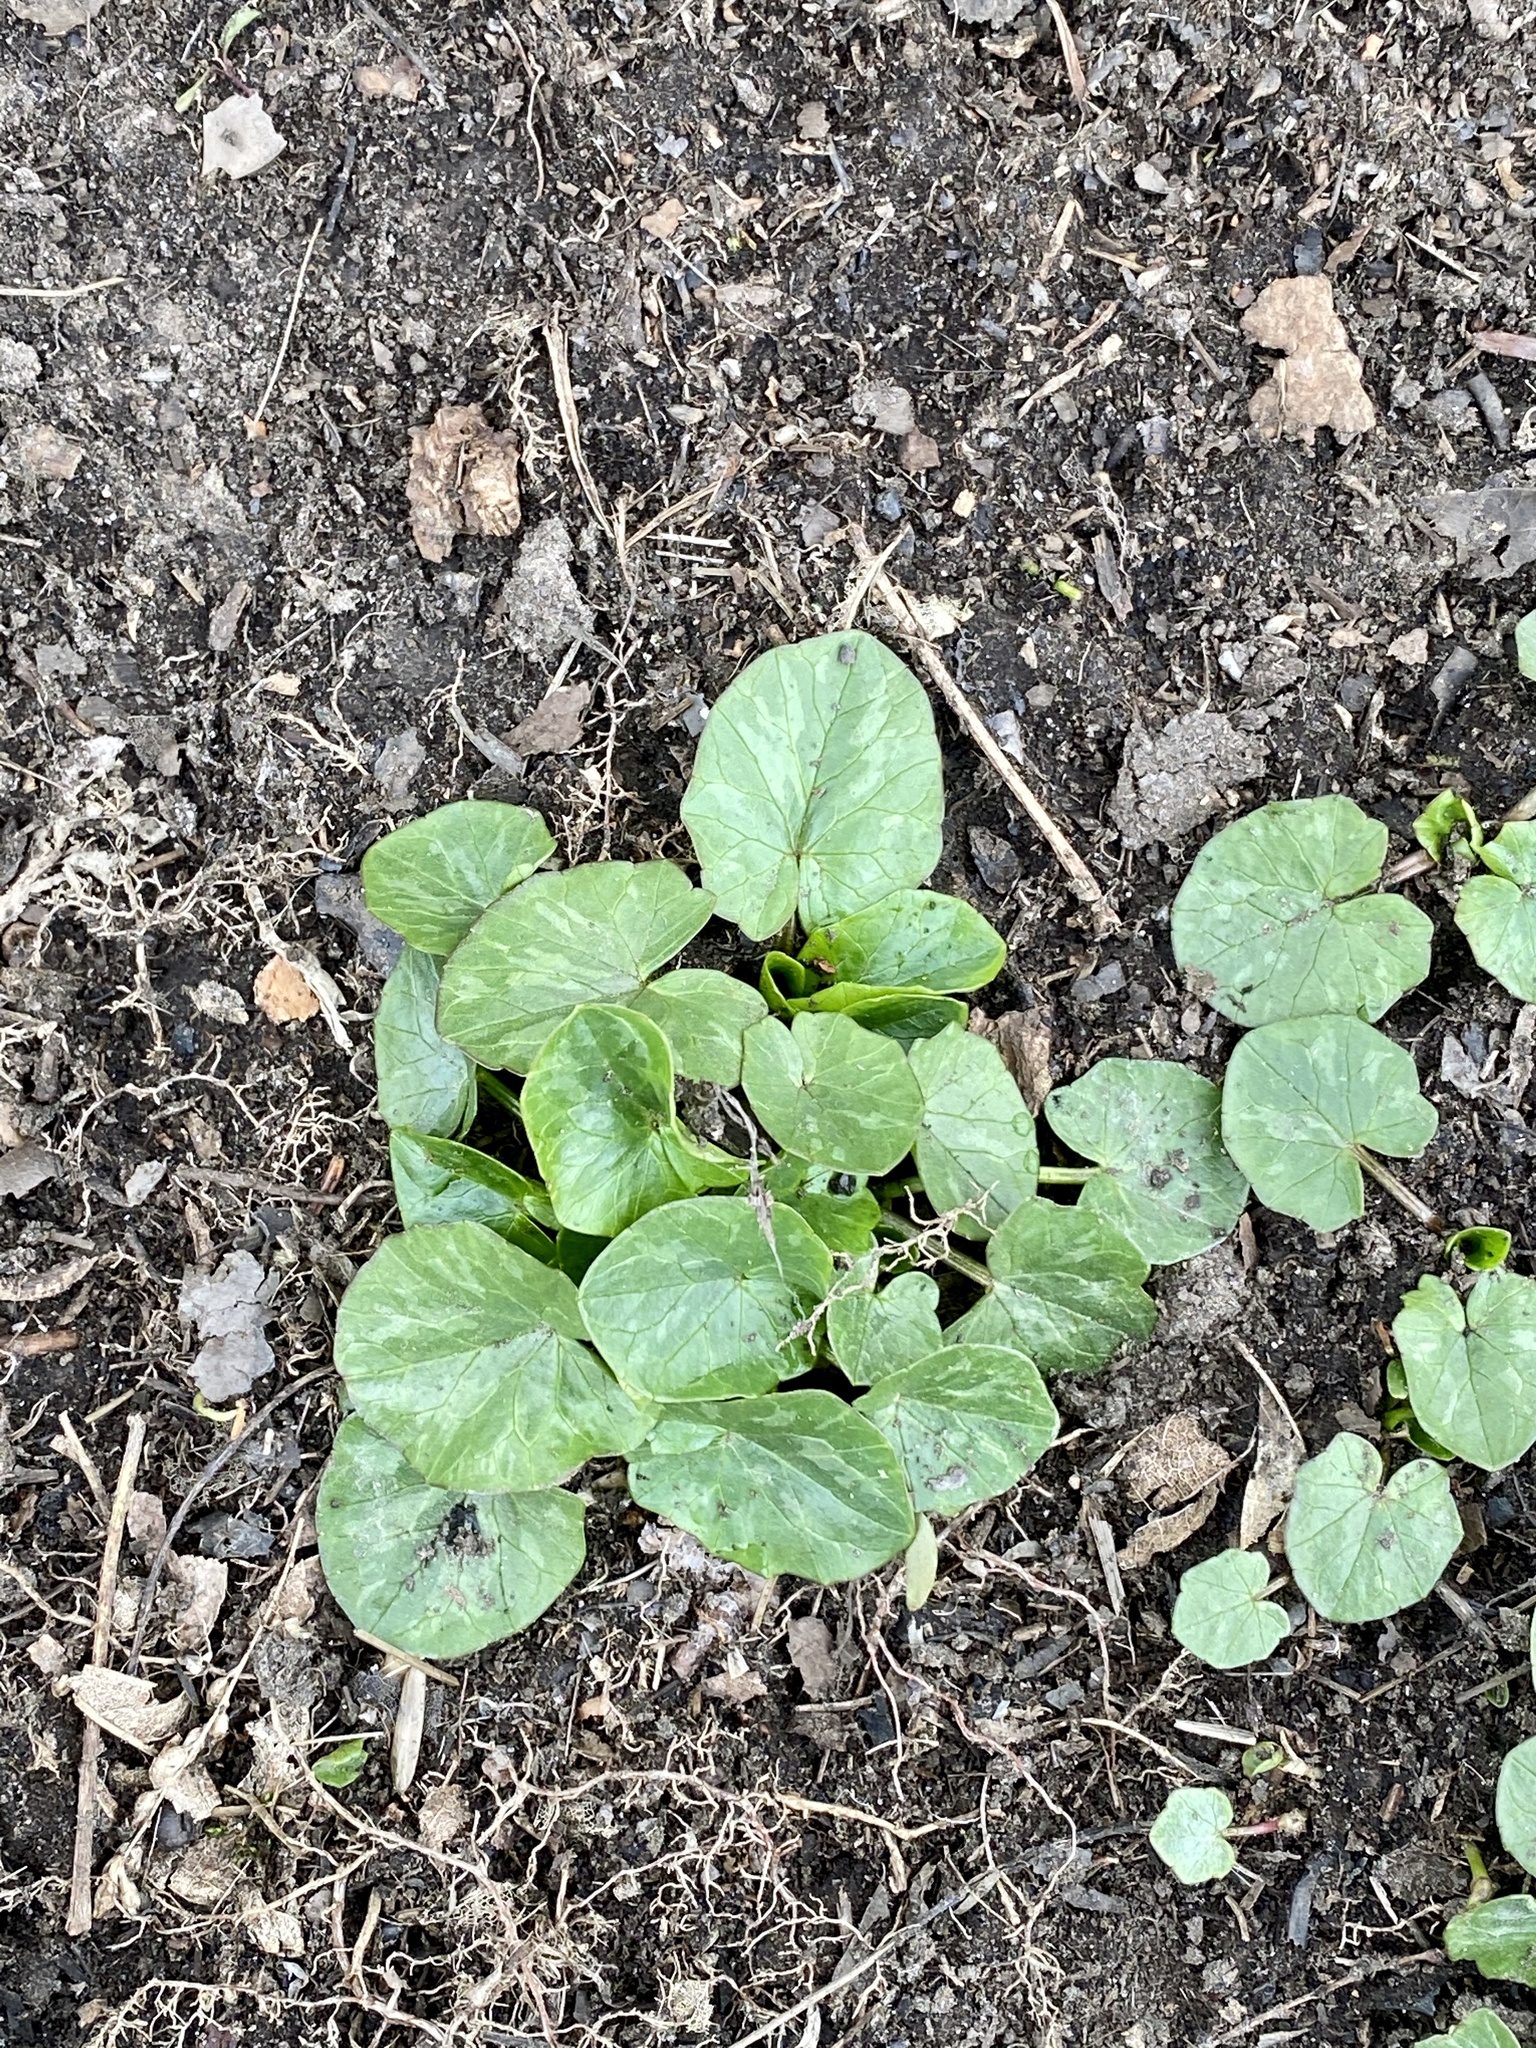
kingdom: Plantae
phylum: Tracheophyta
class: Magnoliopsida
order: Ranunculales
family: Ranunculaceae
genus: Ficaria
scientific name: Ficaria verna
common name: Lesser celandine
